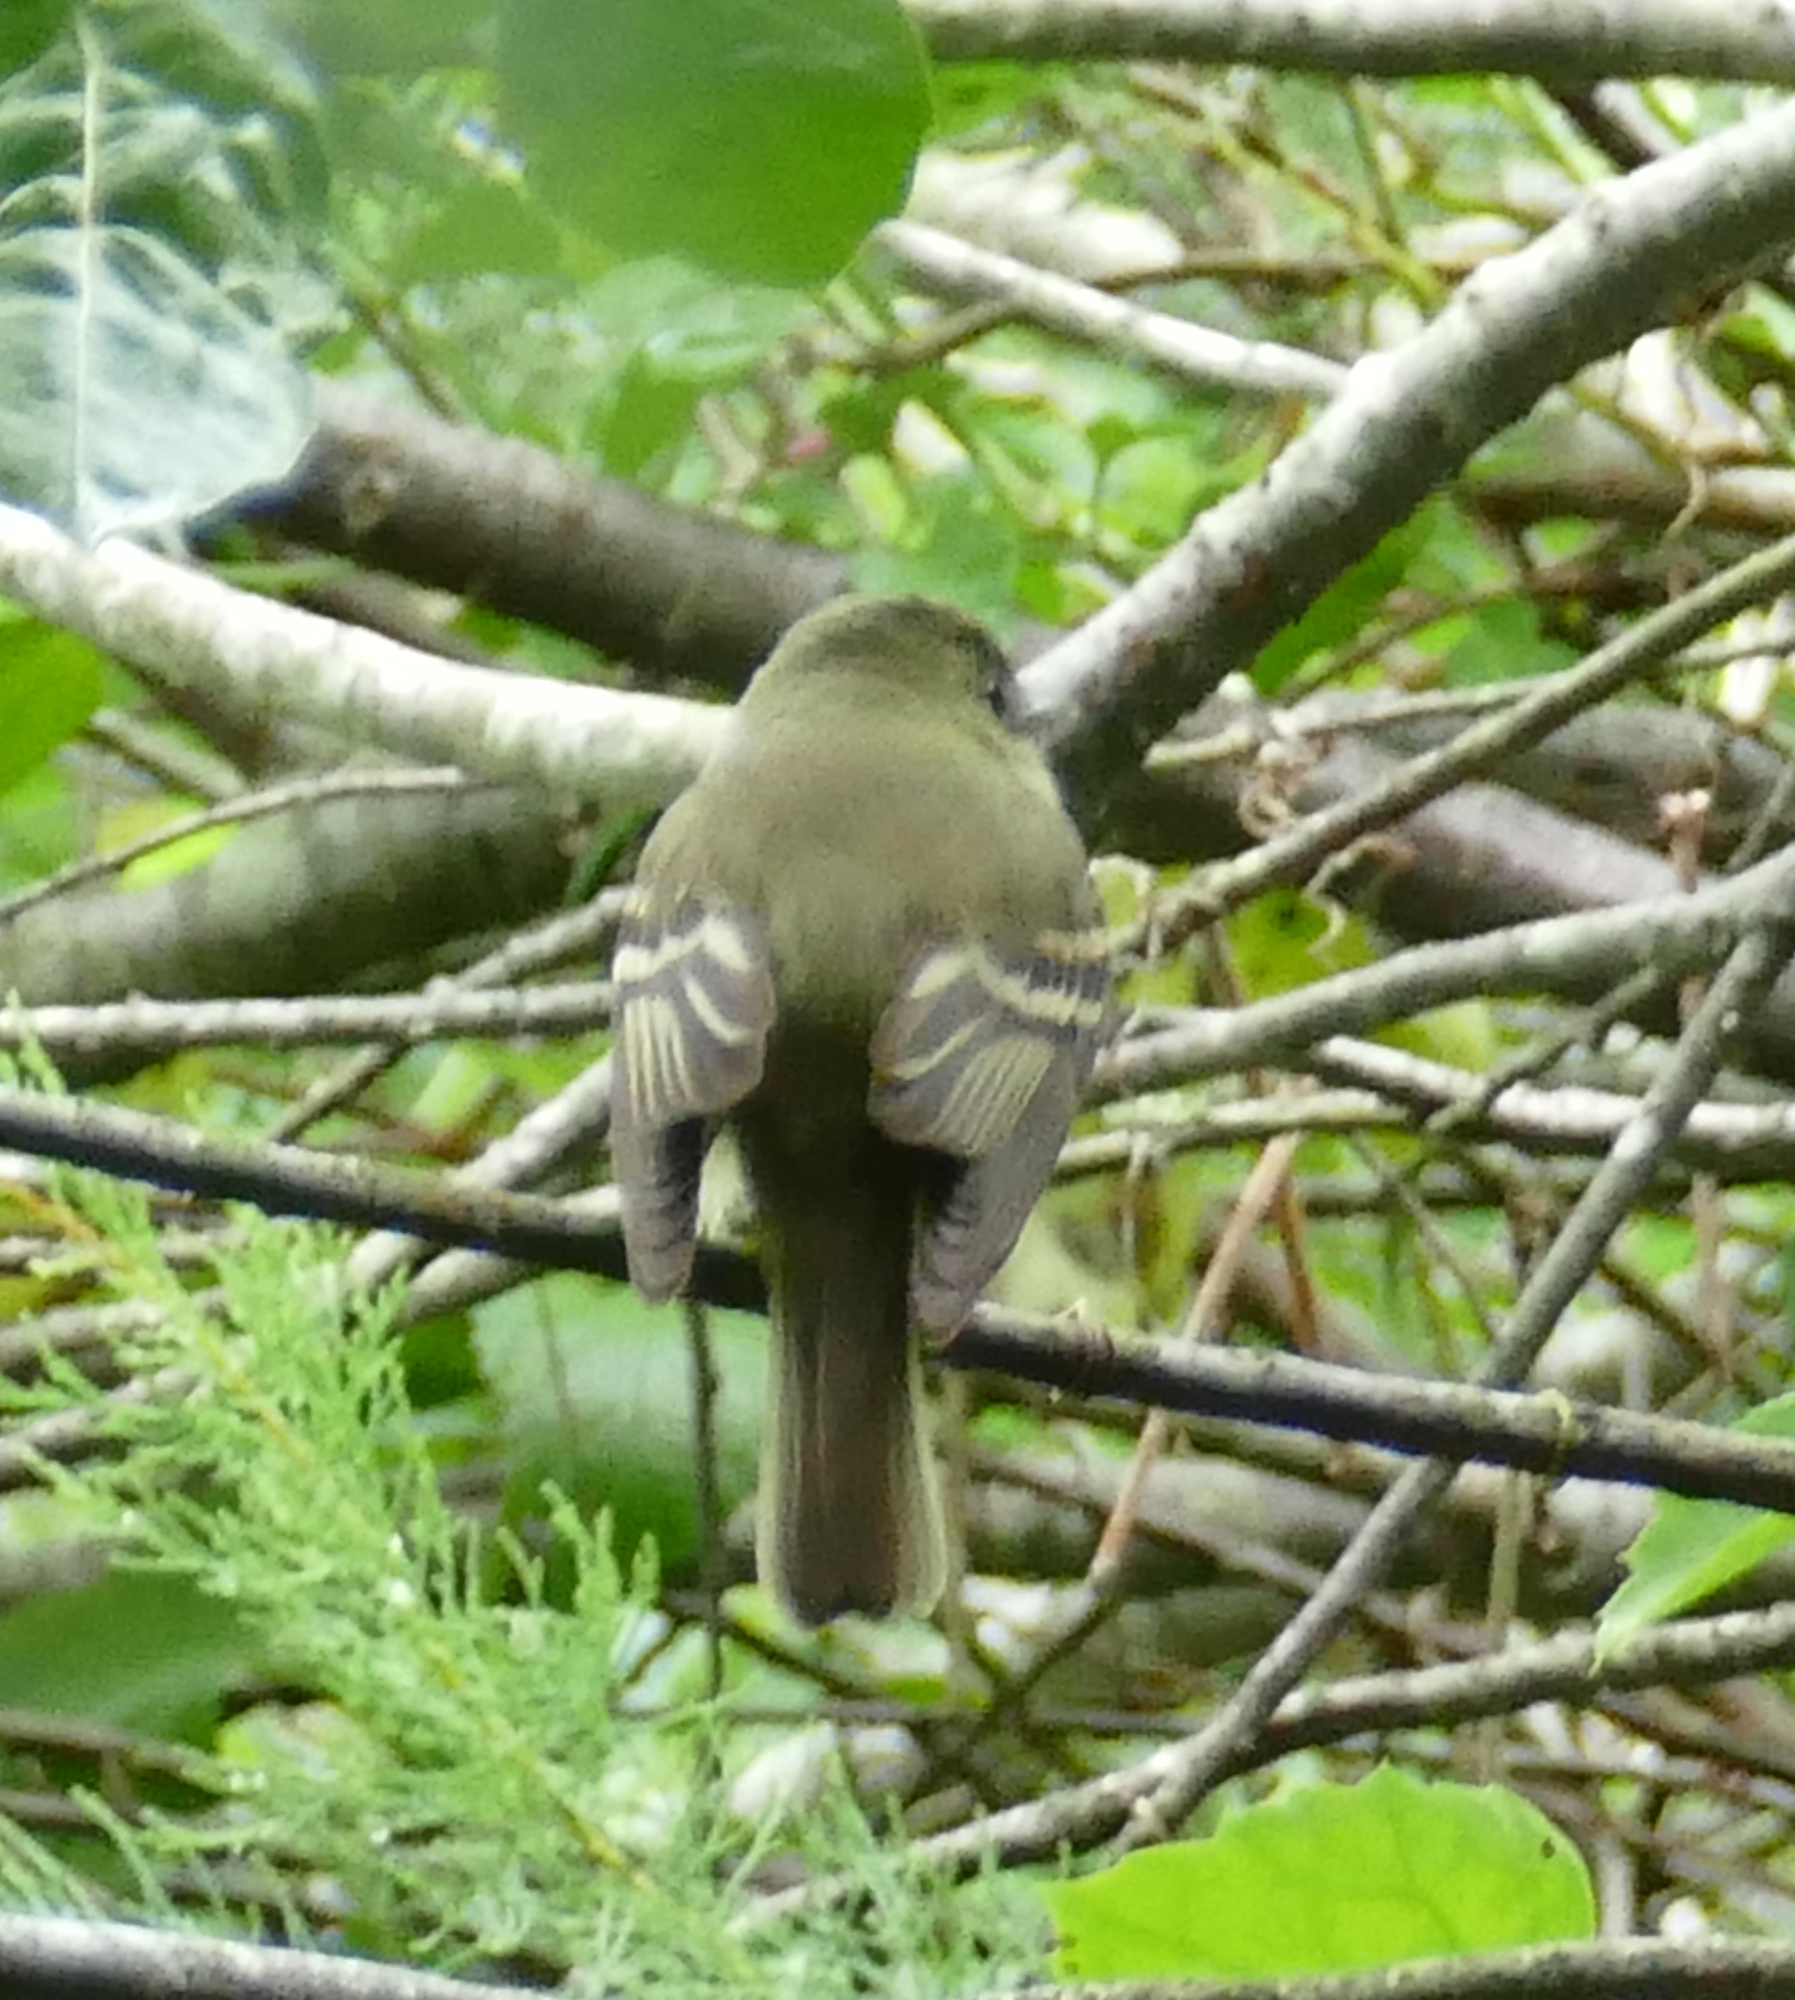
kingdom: Animalia
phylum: Chordata
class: Aves
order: Passeriformes
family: Tyrannidae
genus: Empidonax
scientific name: Empidonax virescens
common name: Acadian flycatcher
